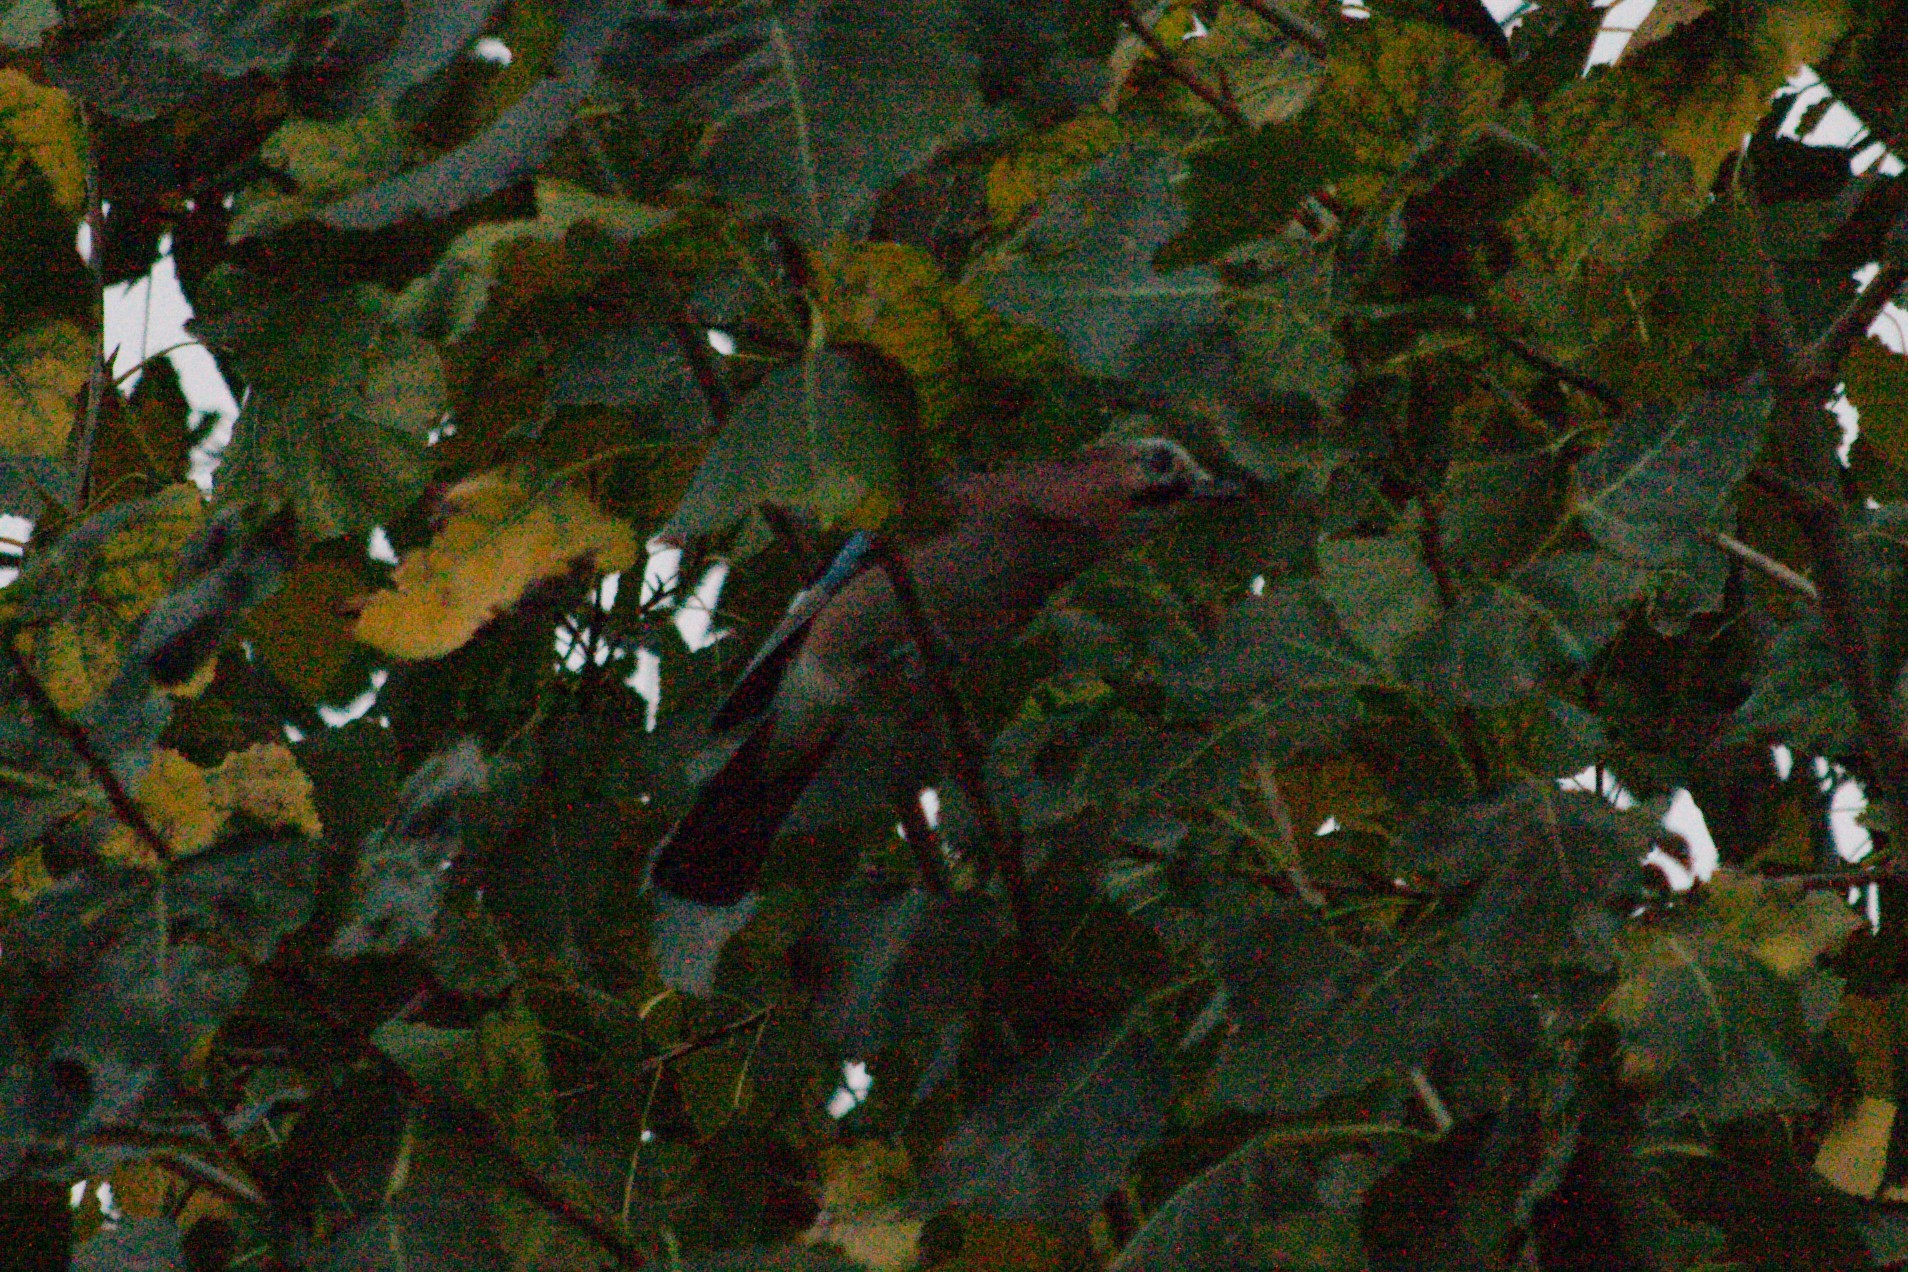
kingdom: Animalia
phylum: Chordata
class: Aves
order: Passeriformes
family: Corvidae
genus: Garrulus
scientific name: Garrulus glandarius
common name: Eurasian jay
